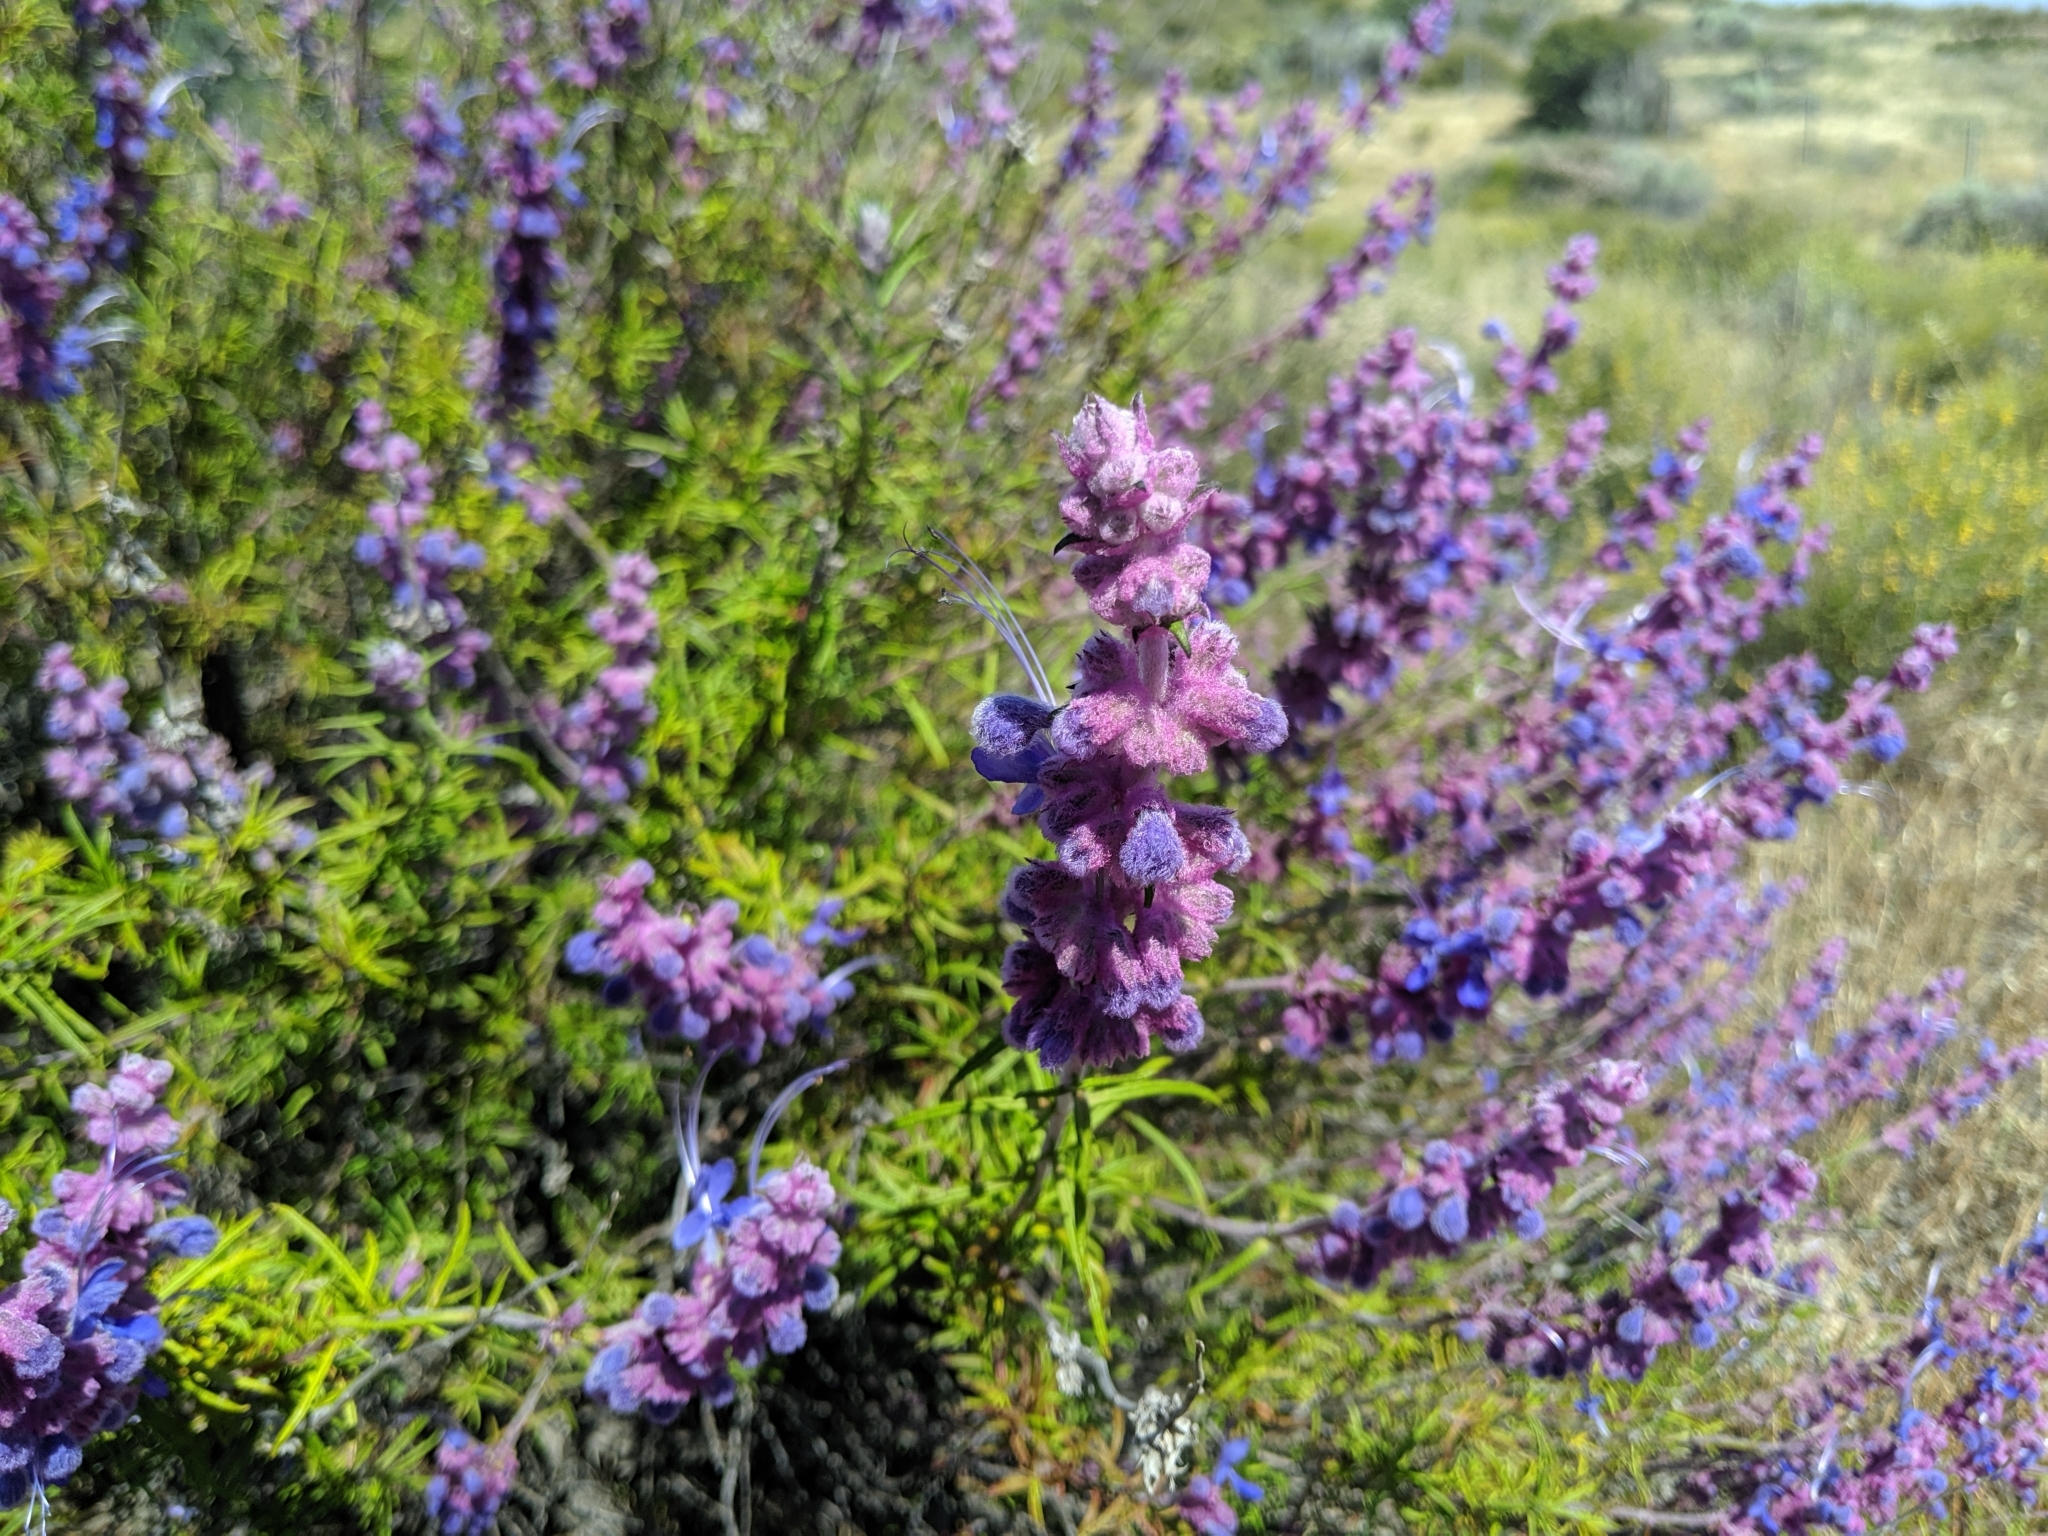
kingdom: Plantae
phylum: Tracheophyta
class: Magnoliopsida
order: Lamiales
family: Lamiaceae
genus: Trichostema
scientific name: Trichostema lanatum
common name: Woolly bluecurls
